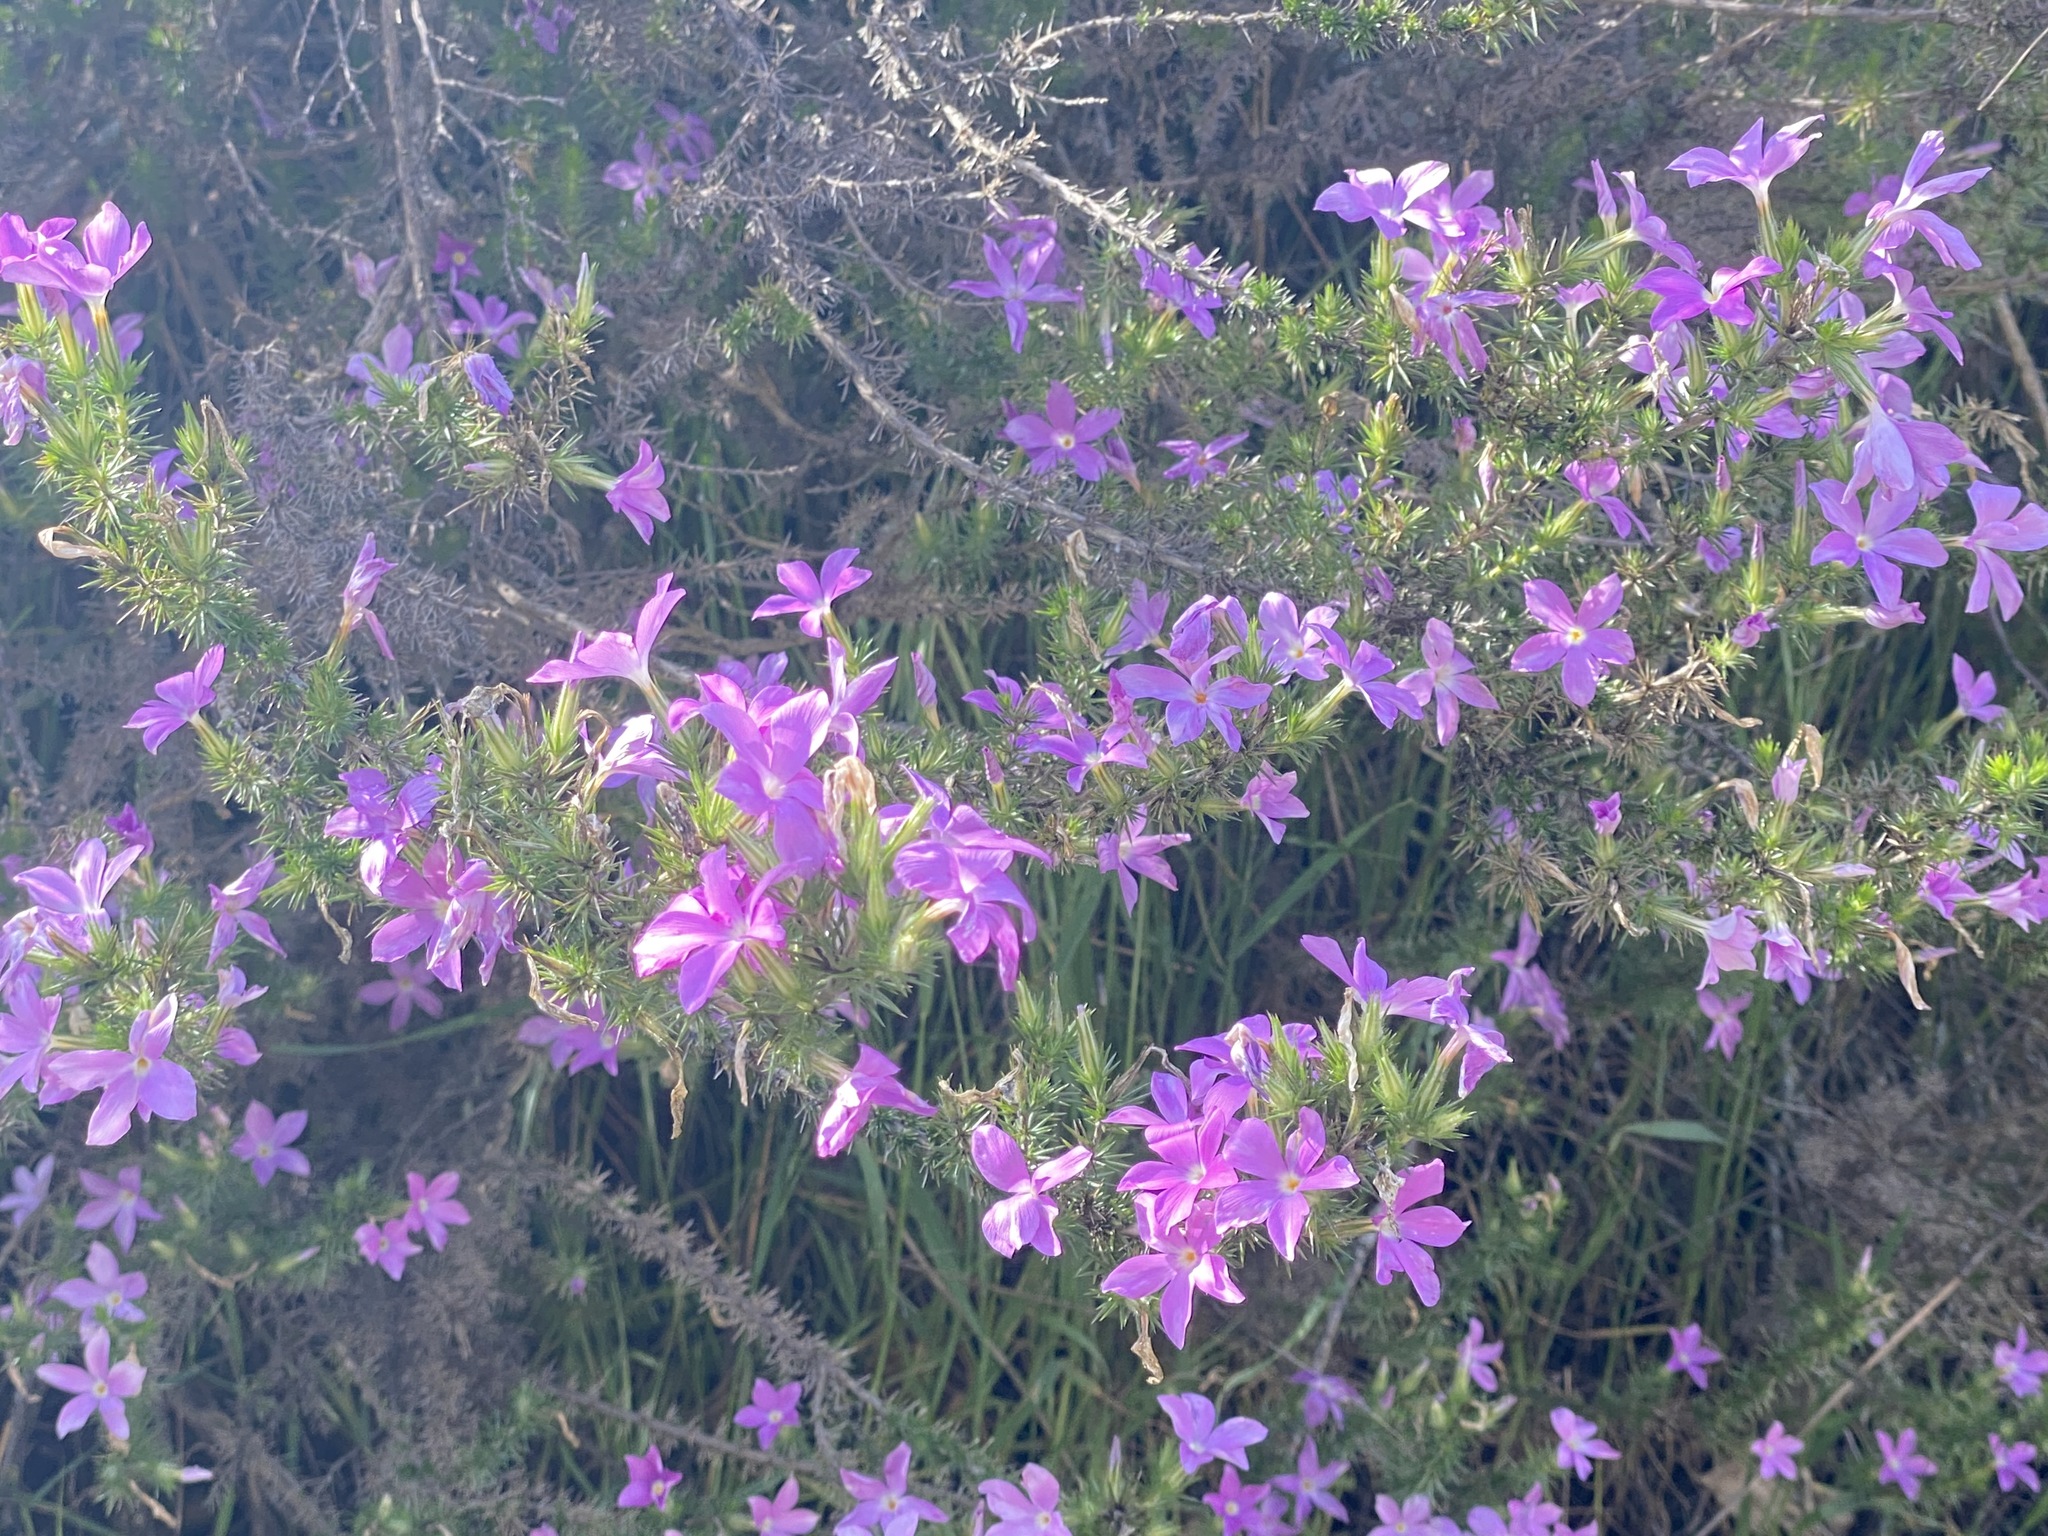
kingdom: Plantae
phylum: Tracheophyta
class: Magnoliopsida
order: Ericales
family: Polemoniaceae
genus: Linanthus
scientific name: Linanthus californicus
